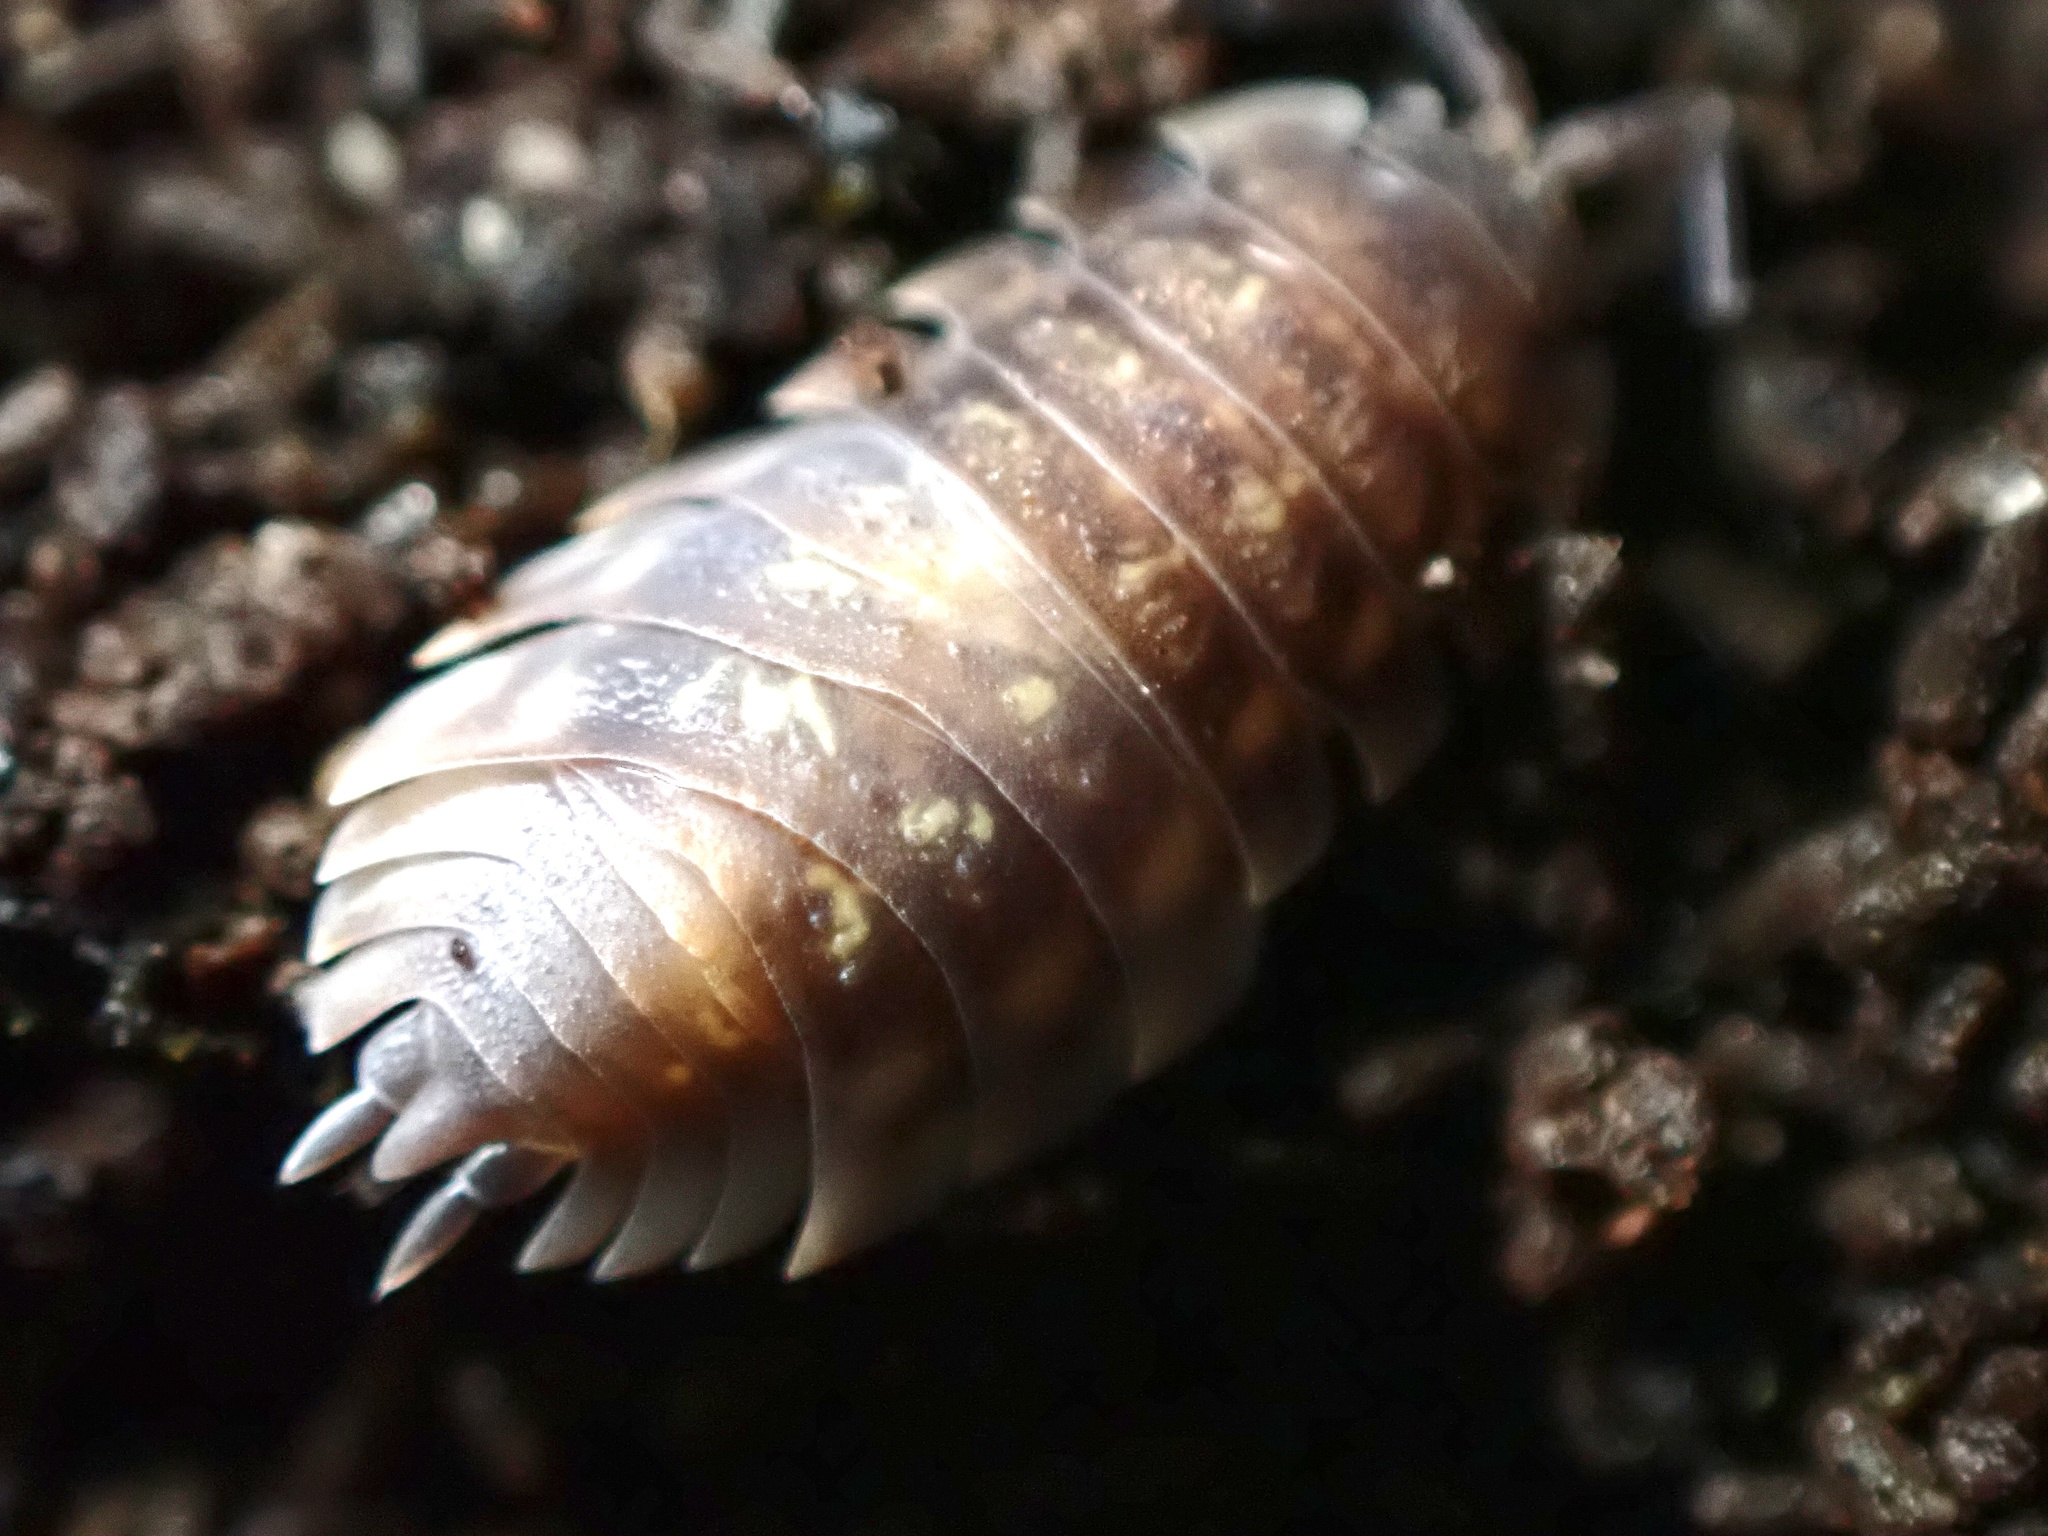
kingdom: Animalia
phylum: Arthropoda
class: Malacostraca
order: Isopoda
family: Oniscidae
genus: Oniscus
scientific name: Oniscus asellus
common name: Common shiny woodlouse
